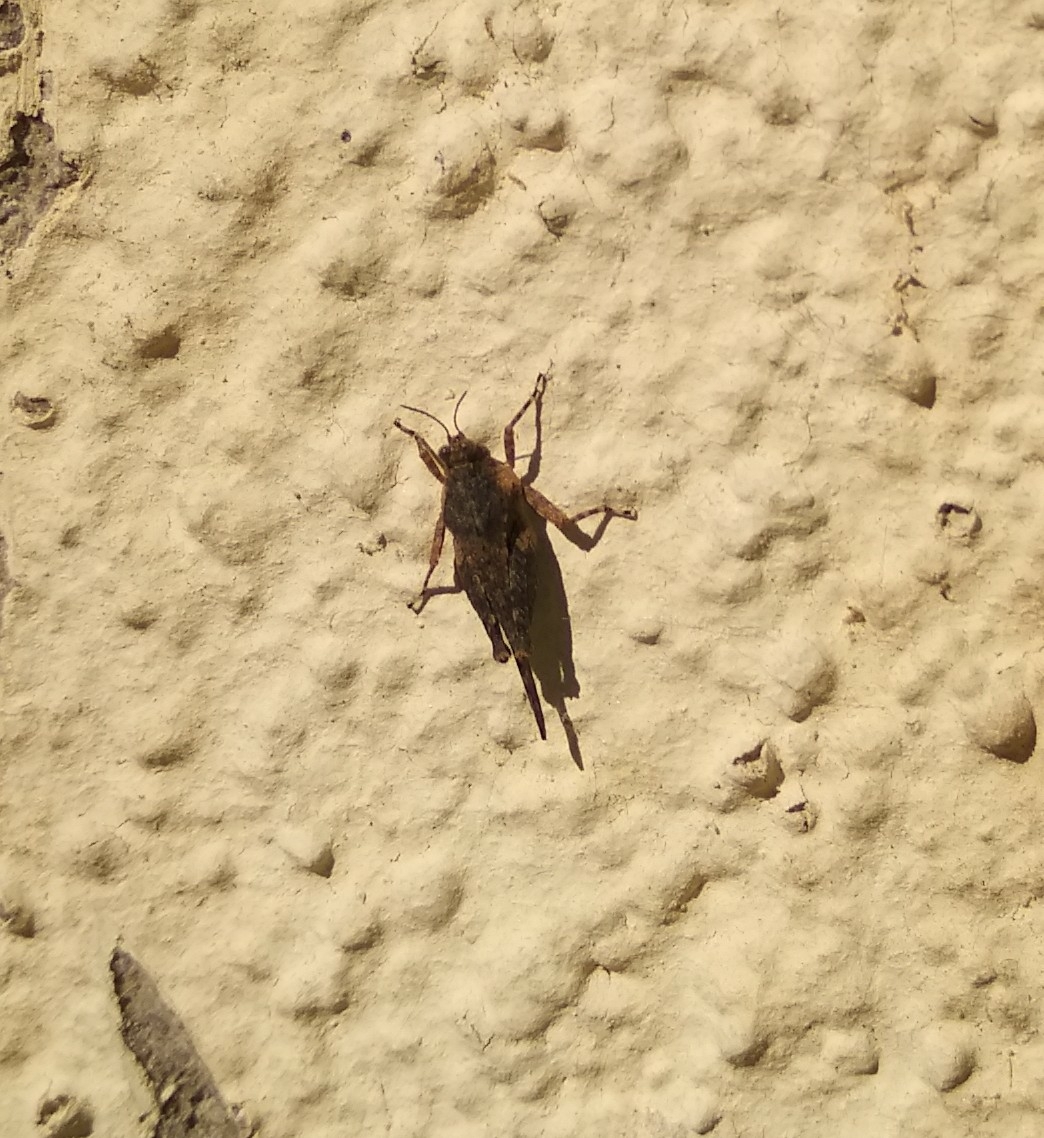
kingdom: Animalia
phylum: Arthropoda
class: Insecta
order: Orthoptera
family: Tetrigidae
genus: Paratettix
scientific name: Paratettix meridionalis
